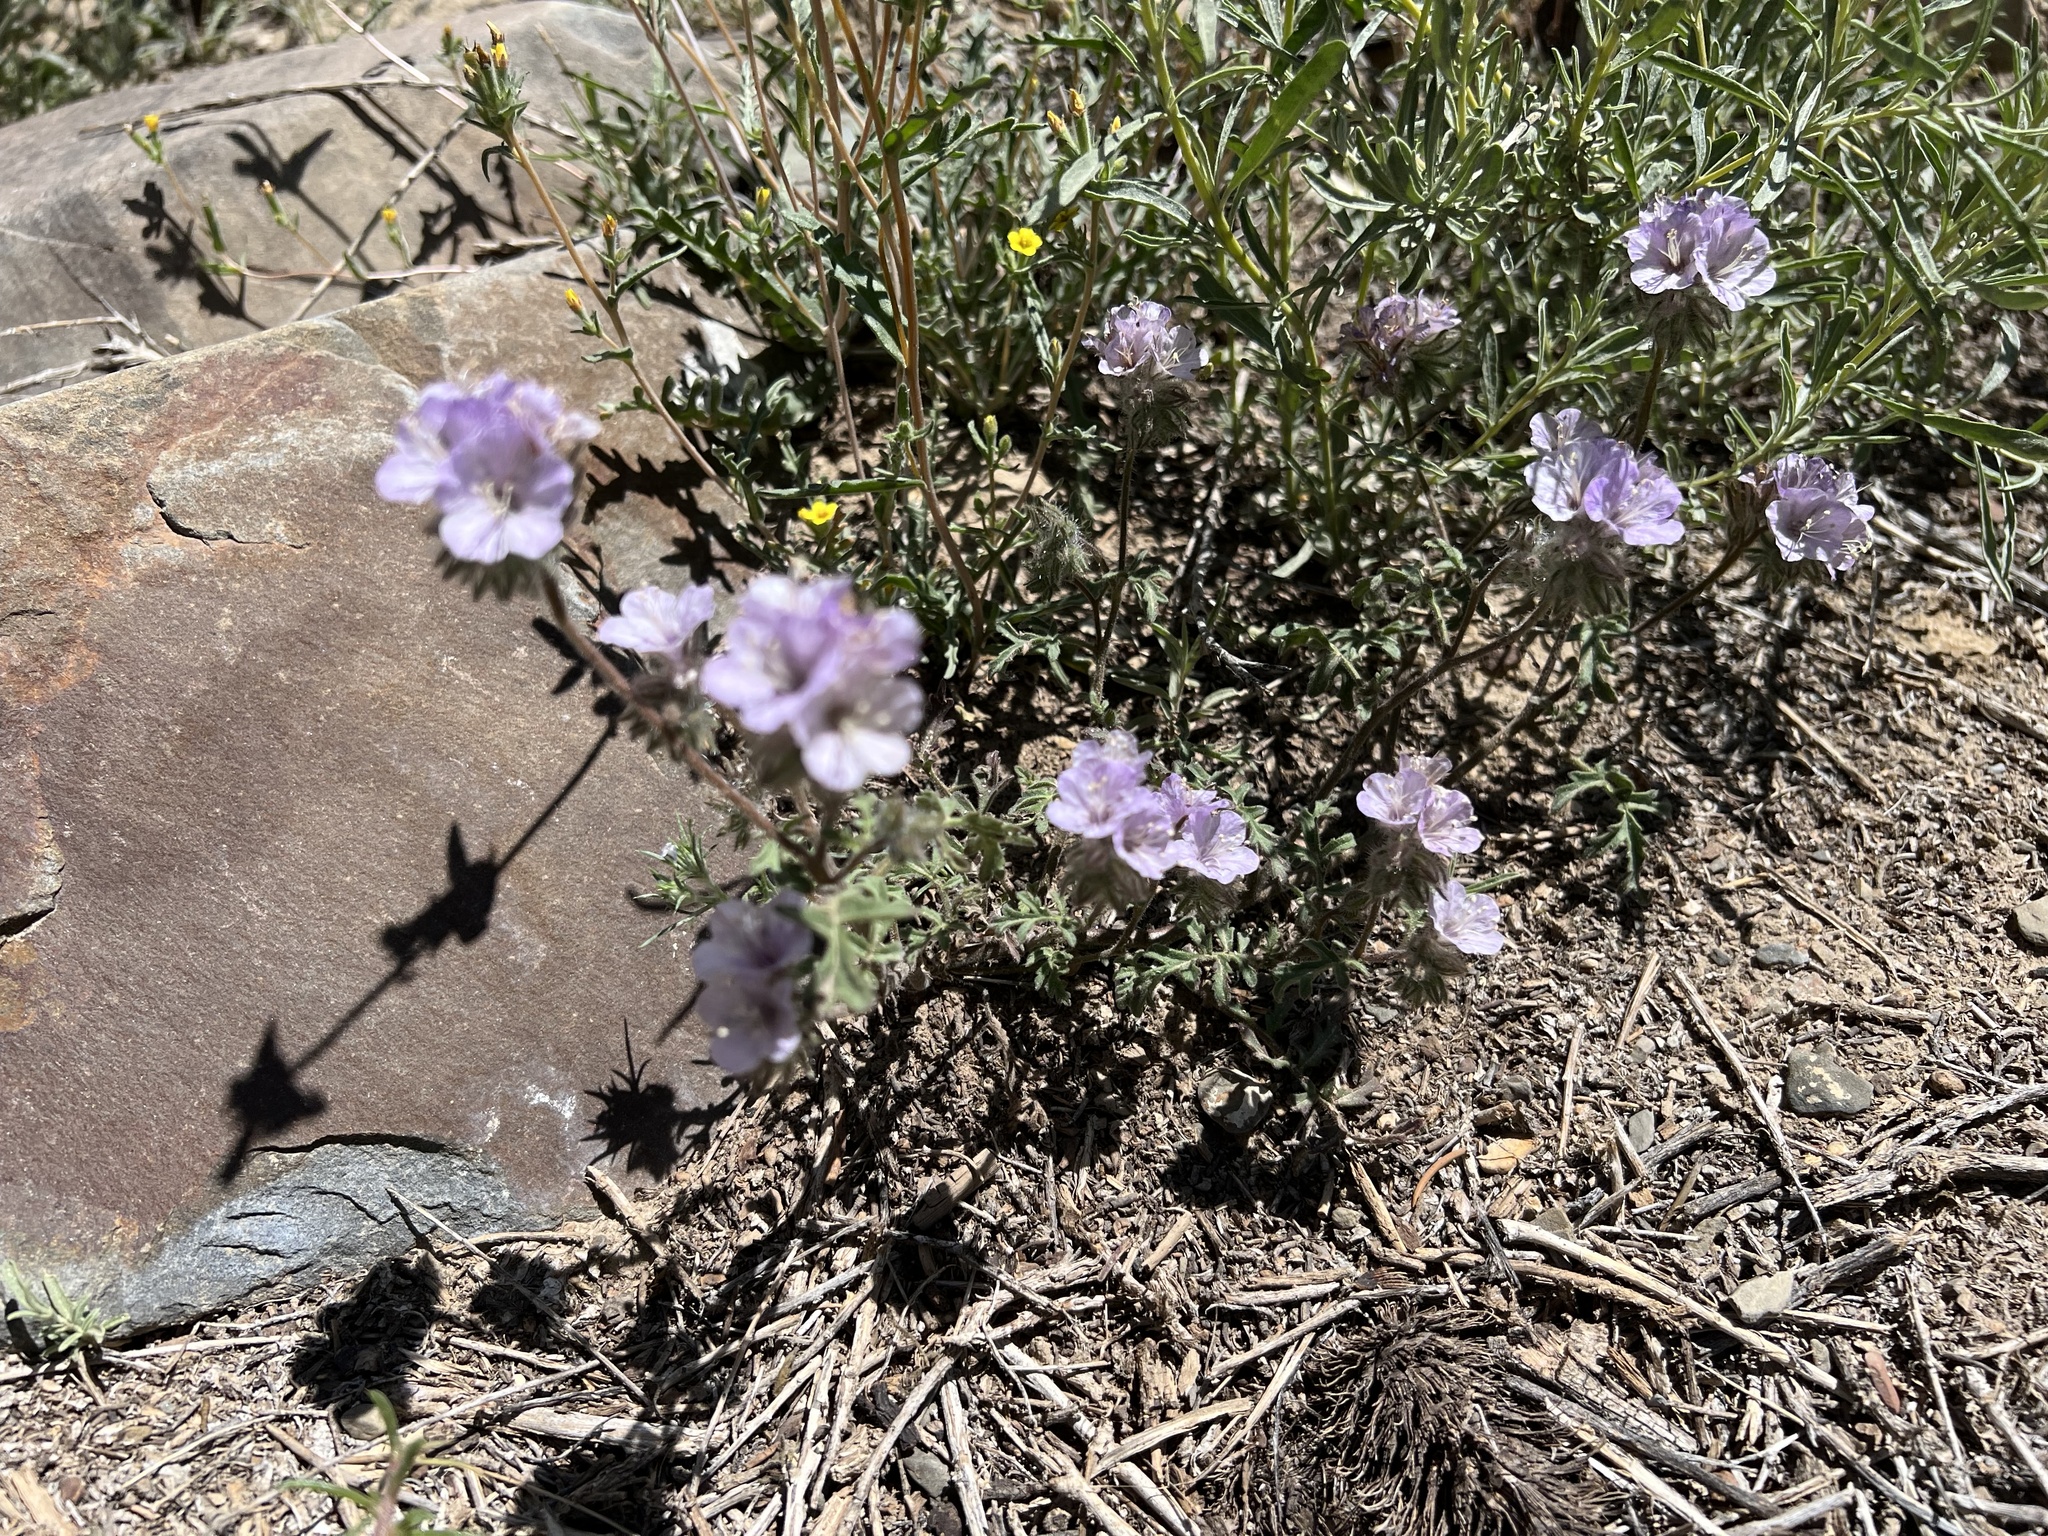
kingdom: Plantae
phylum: Tracheophyta
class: Magnoliopsida
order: Boraginales
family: Hydrophyllaceae
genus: Phacelia
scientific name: Phacelia vallis-mortae
